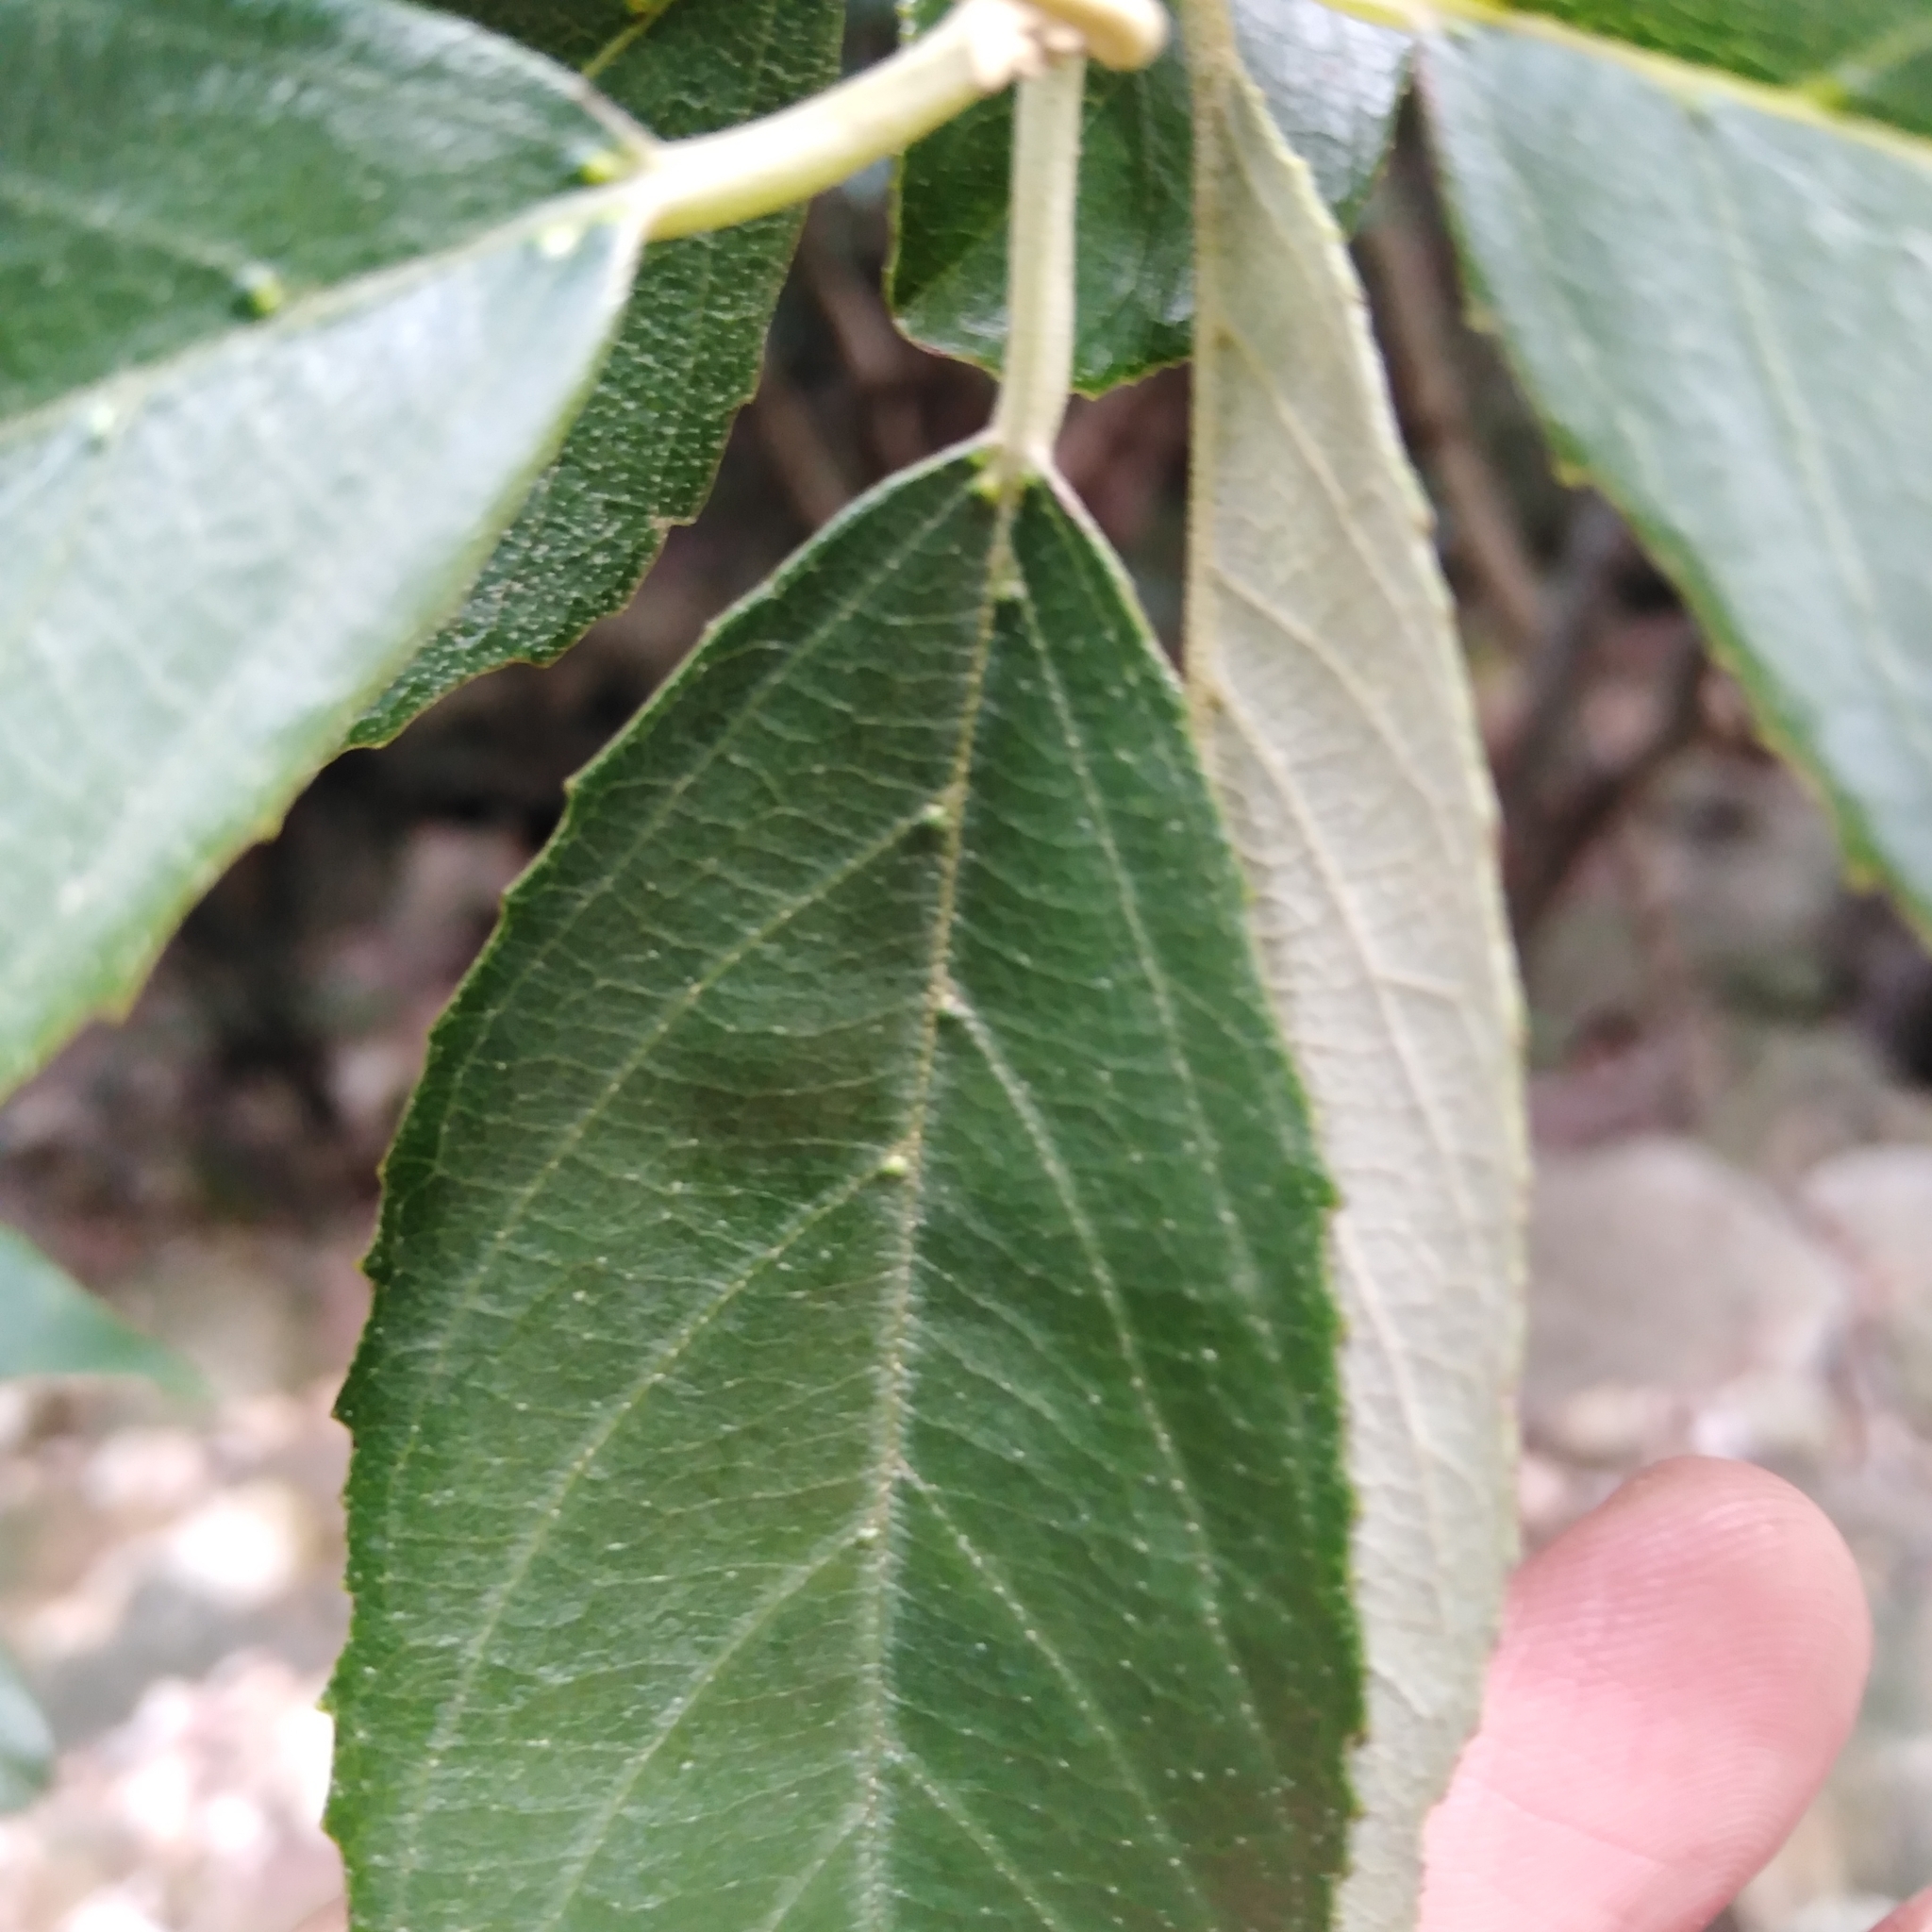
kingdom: Plantae
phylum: Tracheophyta
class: Magnoliopsida
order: Malpighiales
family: Achariaceae
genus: Kiggelaria
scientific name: Kiggelaria africana
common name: Wild peach
